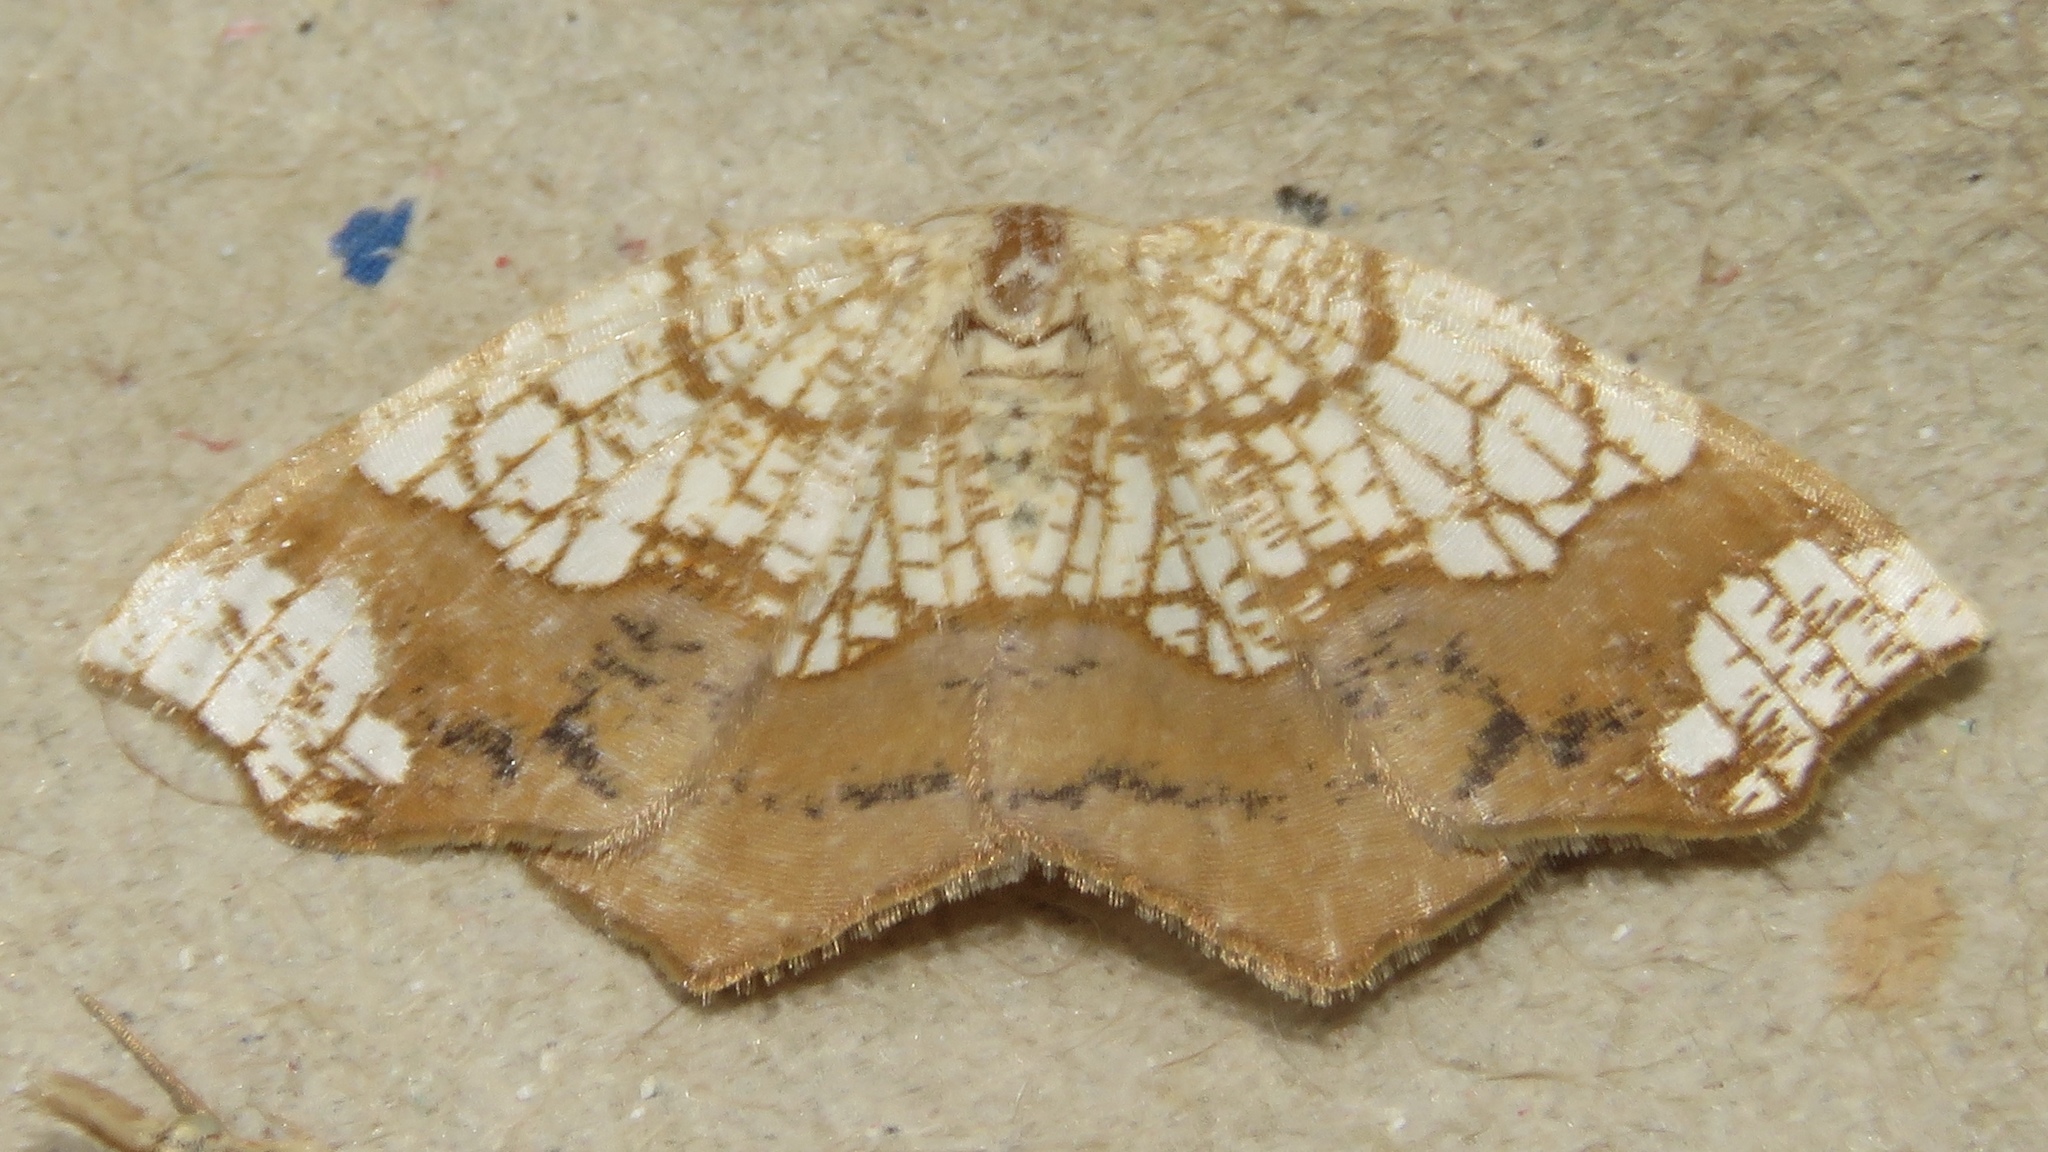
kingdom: Animalia
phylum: Arthropoda
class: Insecta
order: Lepidoptera
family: Geometridae
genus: Nematocampa
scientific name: Nematocampa resistaria
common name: Horned spanworm moth
